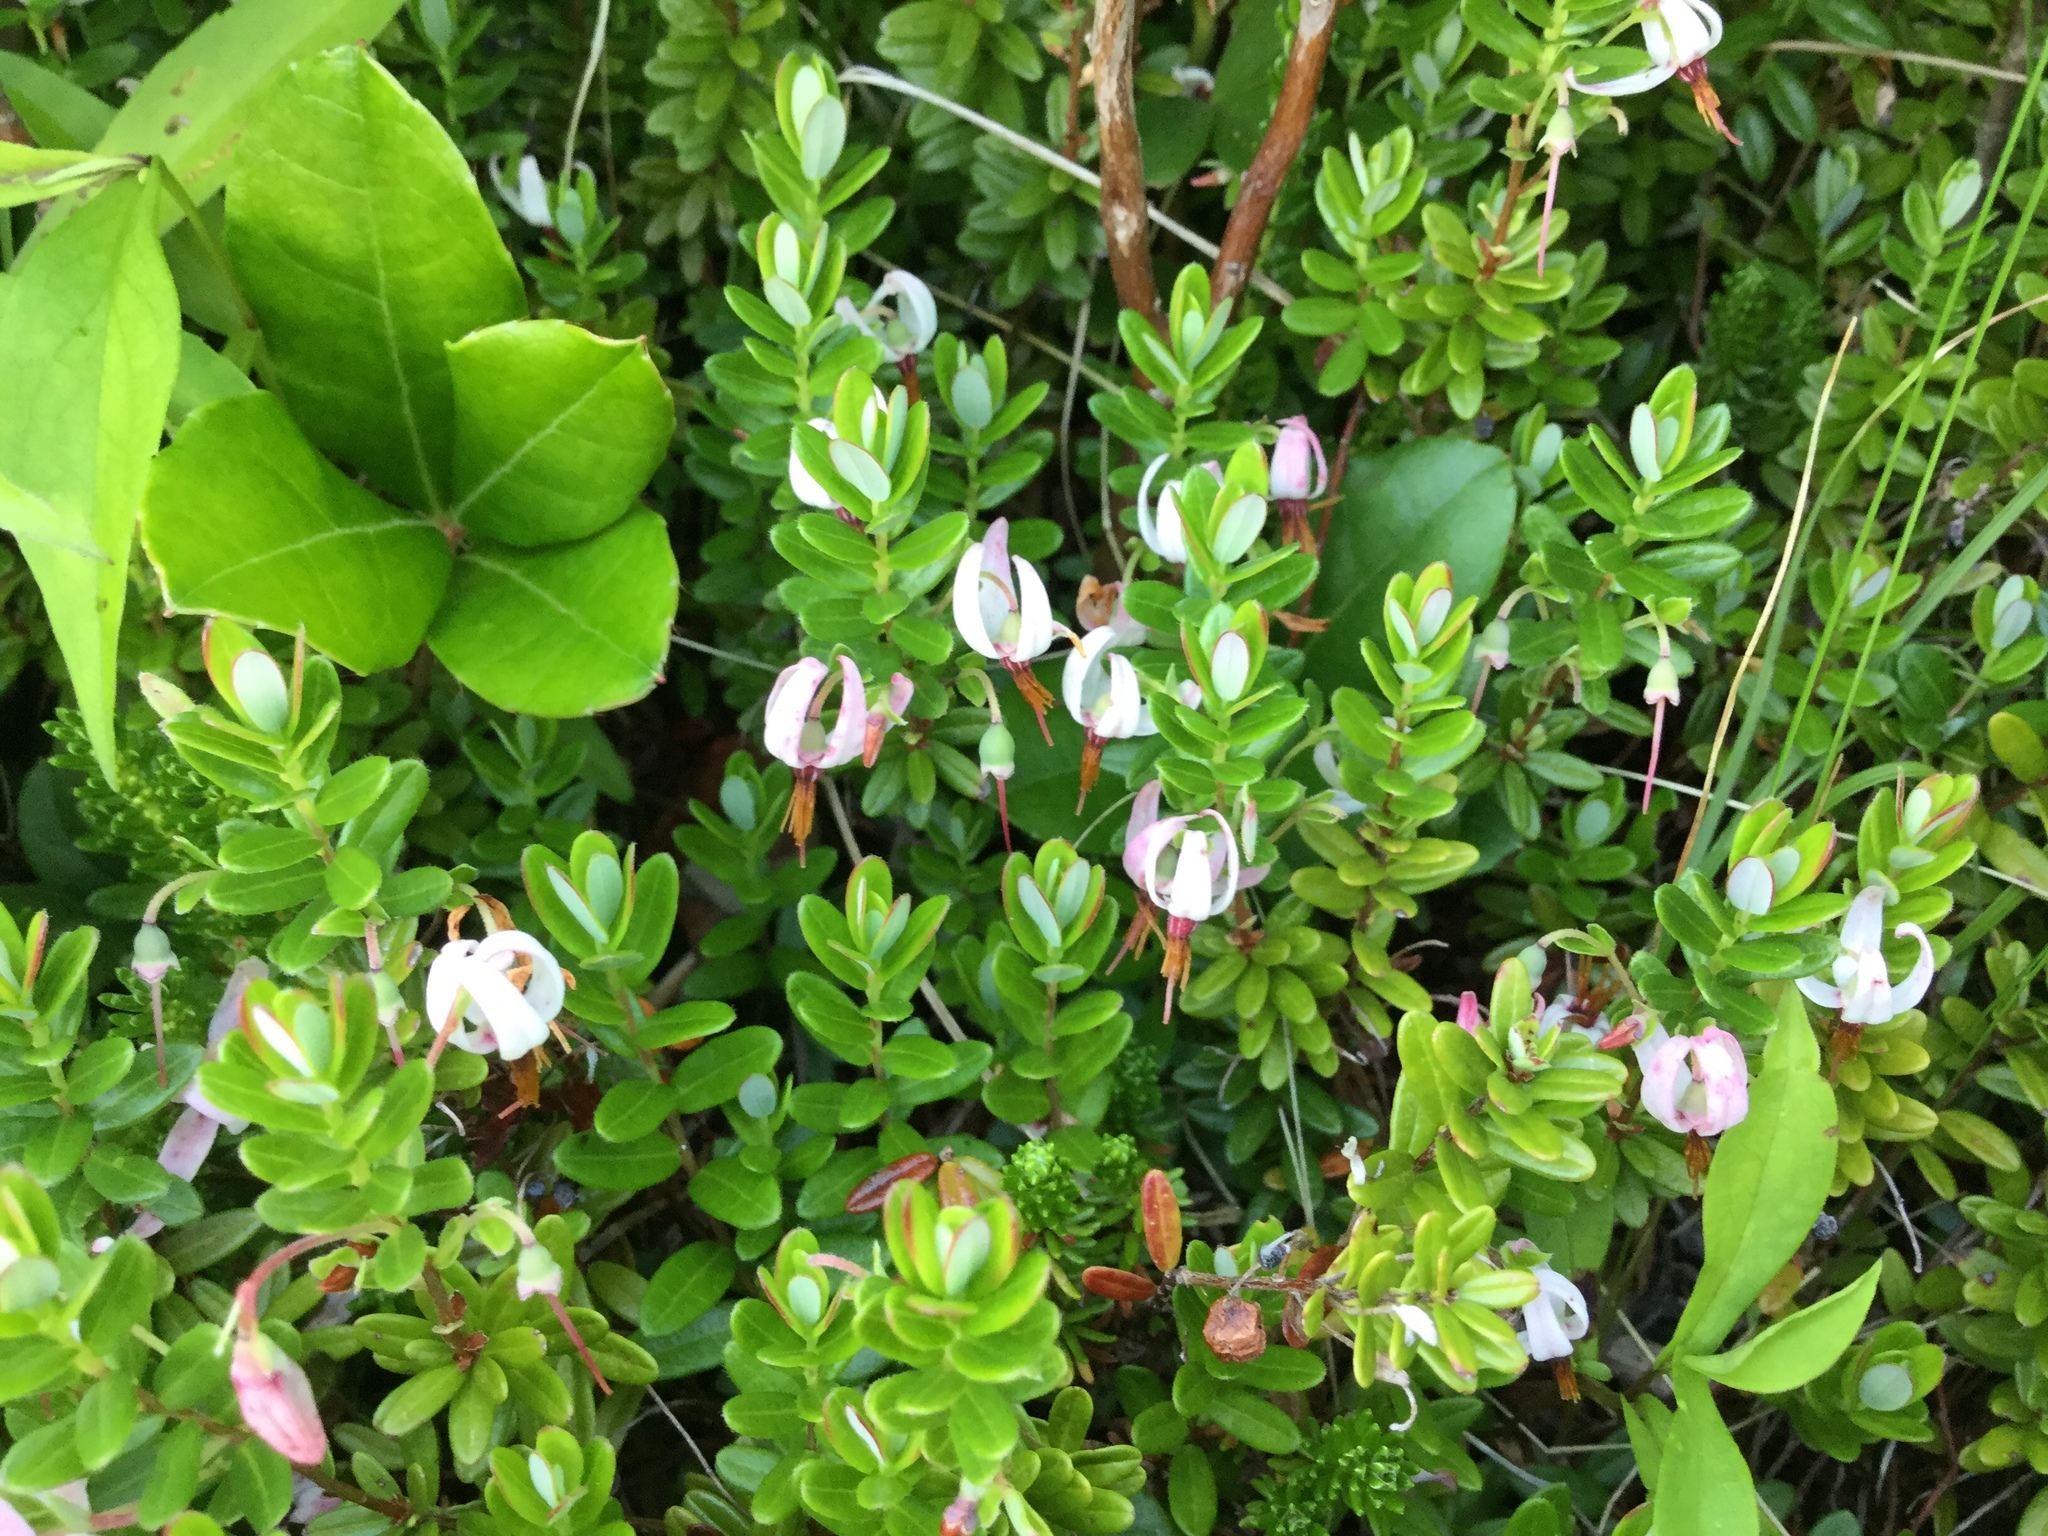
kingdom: Plantae
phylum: Tracheophyta
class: Magnoliopsida
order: Ericales
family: Ericaceae
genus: Vaccinium
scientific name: Vaccinium macrocarpon
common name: American cranberry
